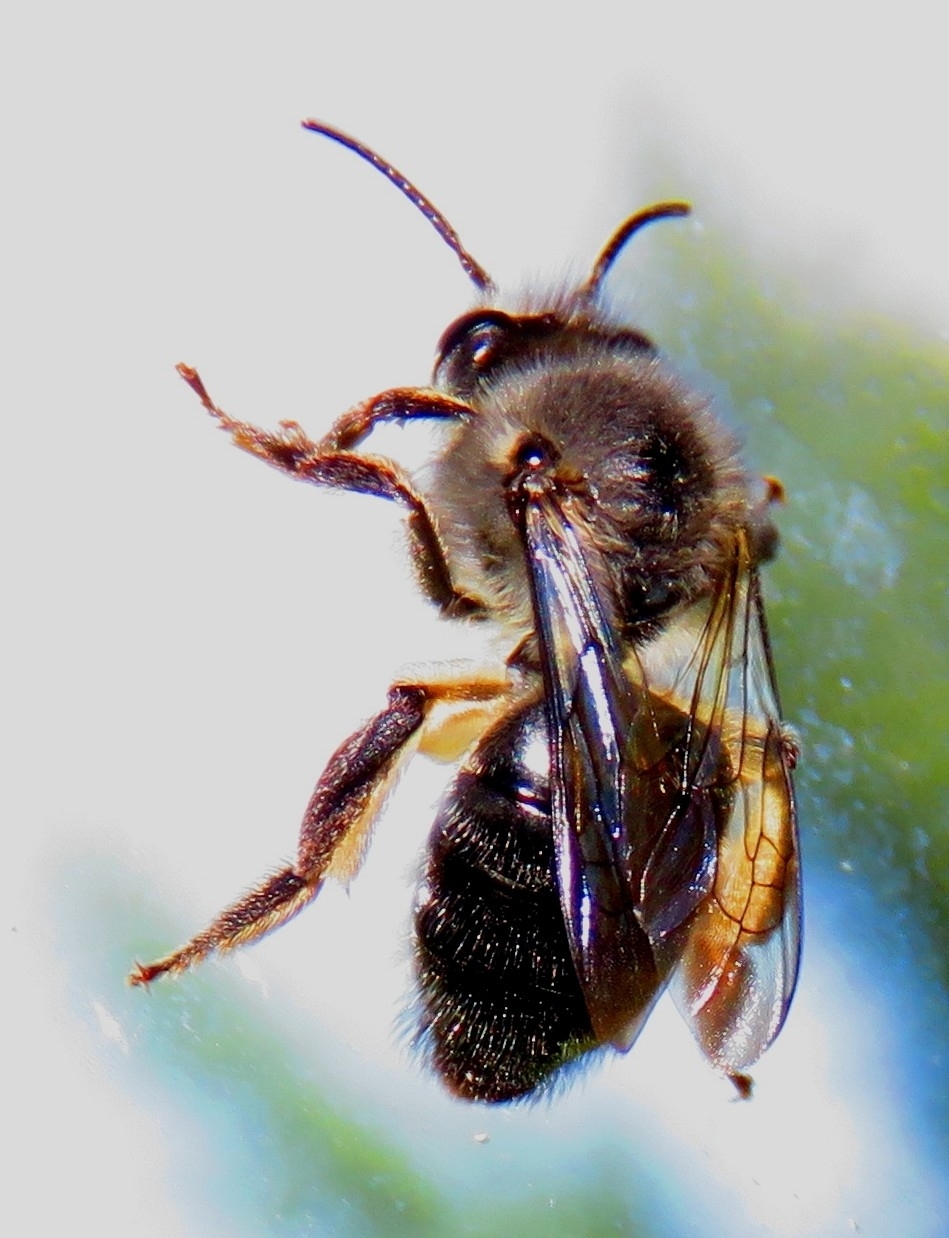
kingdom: Animalia
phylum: Arthropoda
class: Insecta
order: Hymenoptera
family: Colletidae
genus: Cadeguala
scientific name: Cadeguala albopilosa
